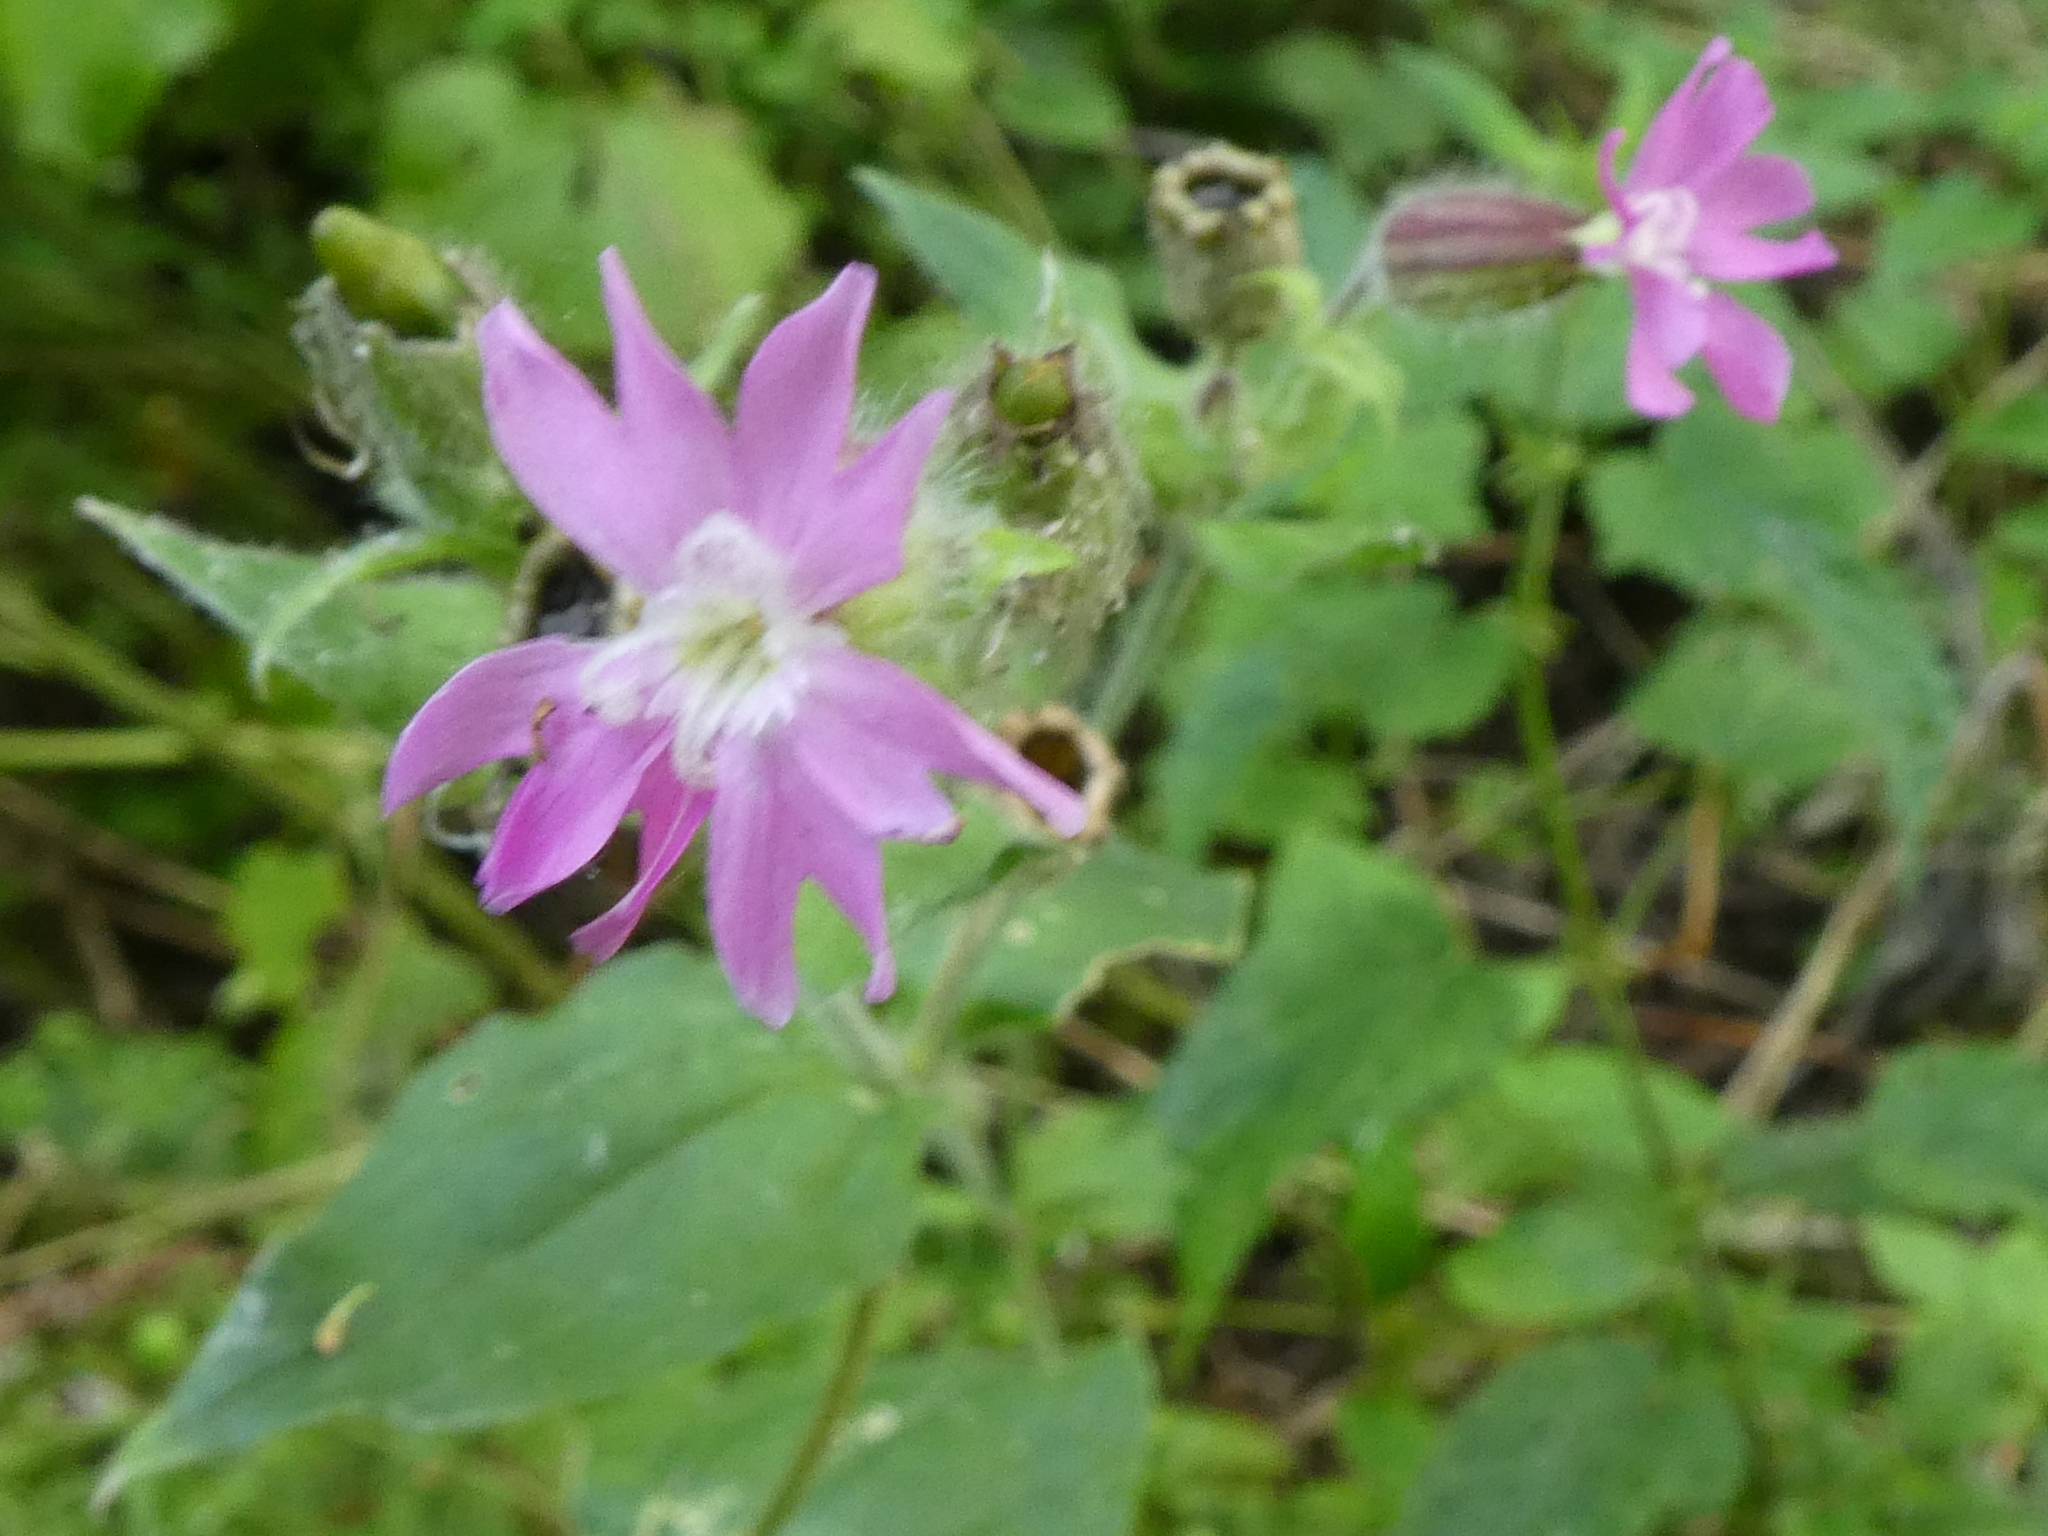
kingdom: Plantae
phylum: Tracheophyta
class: Magnoliopsida
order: Caryophyllales
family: Caryophyllaceae
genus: Silene
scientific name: Silene dioica
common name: Red campion
